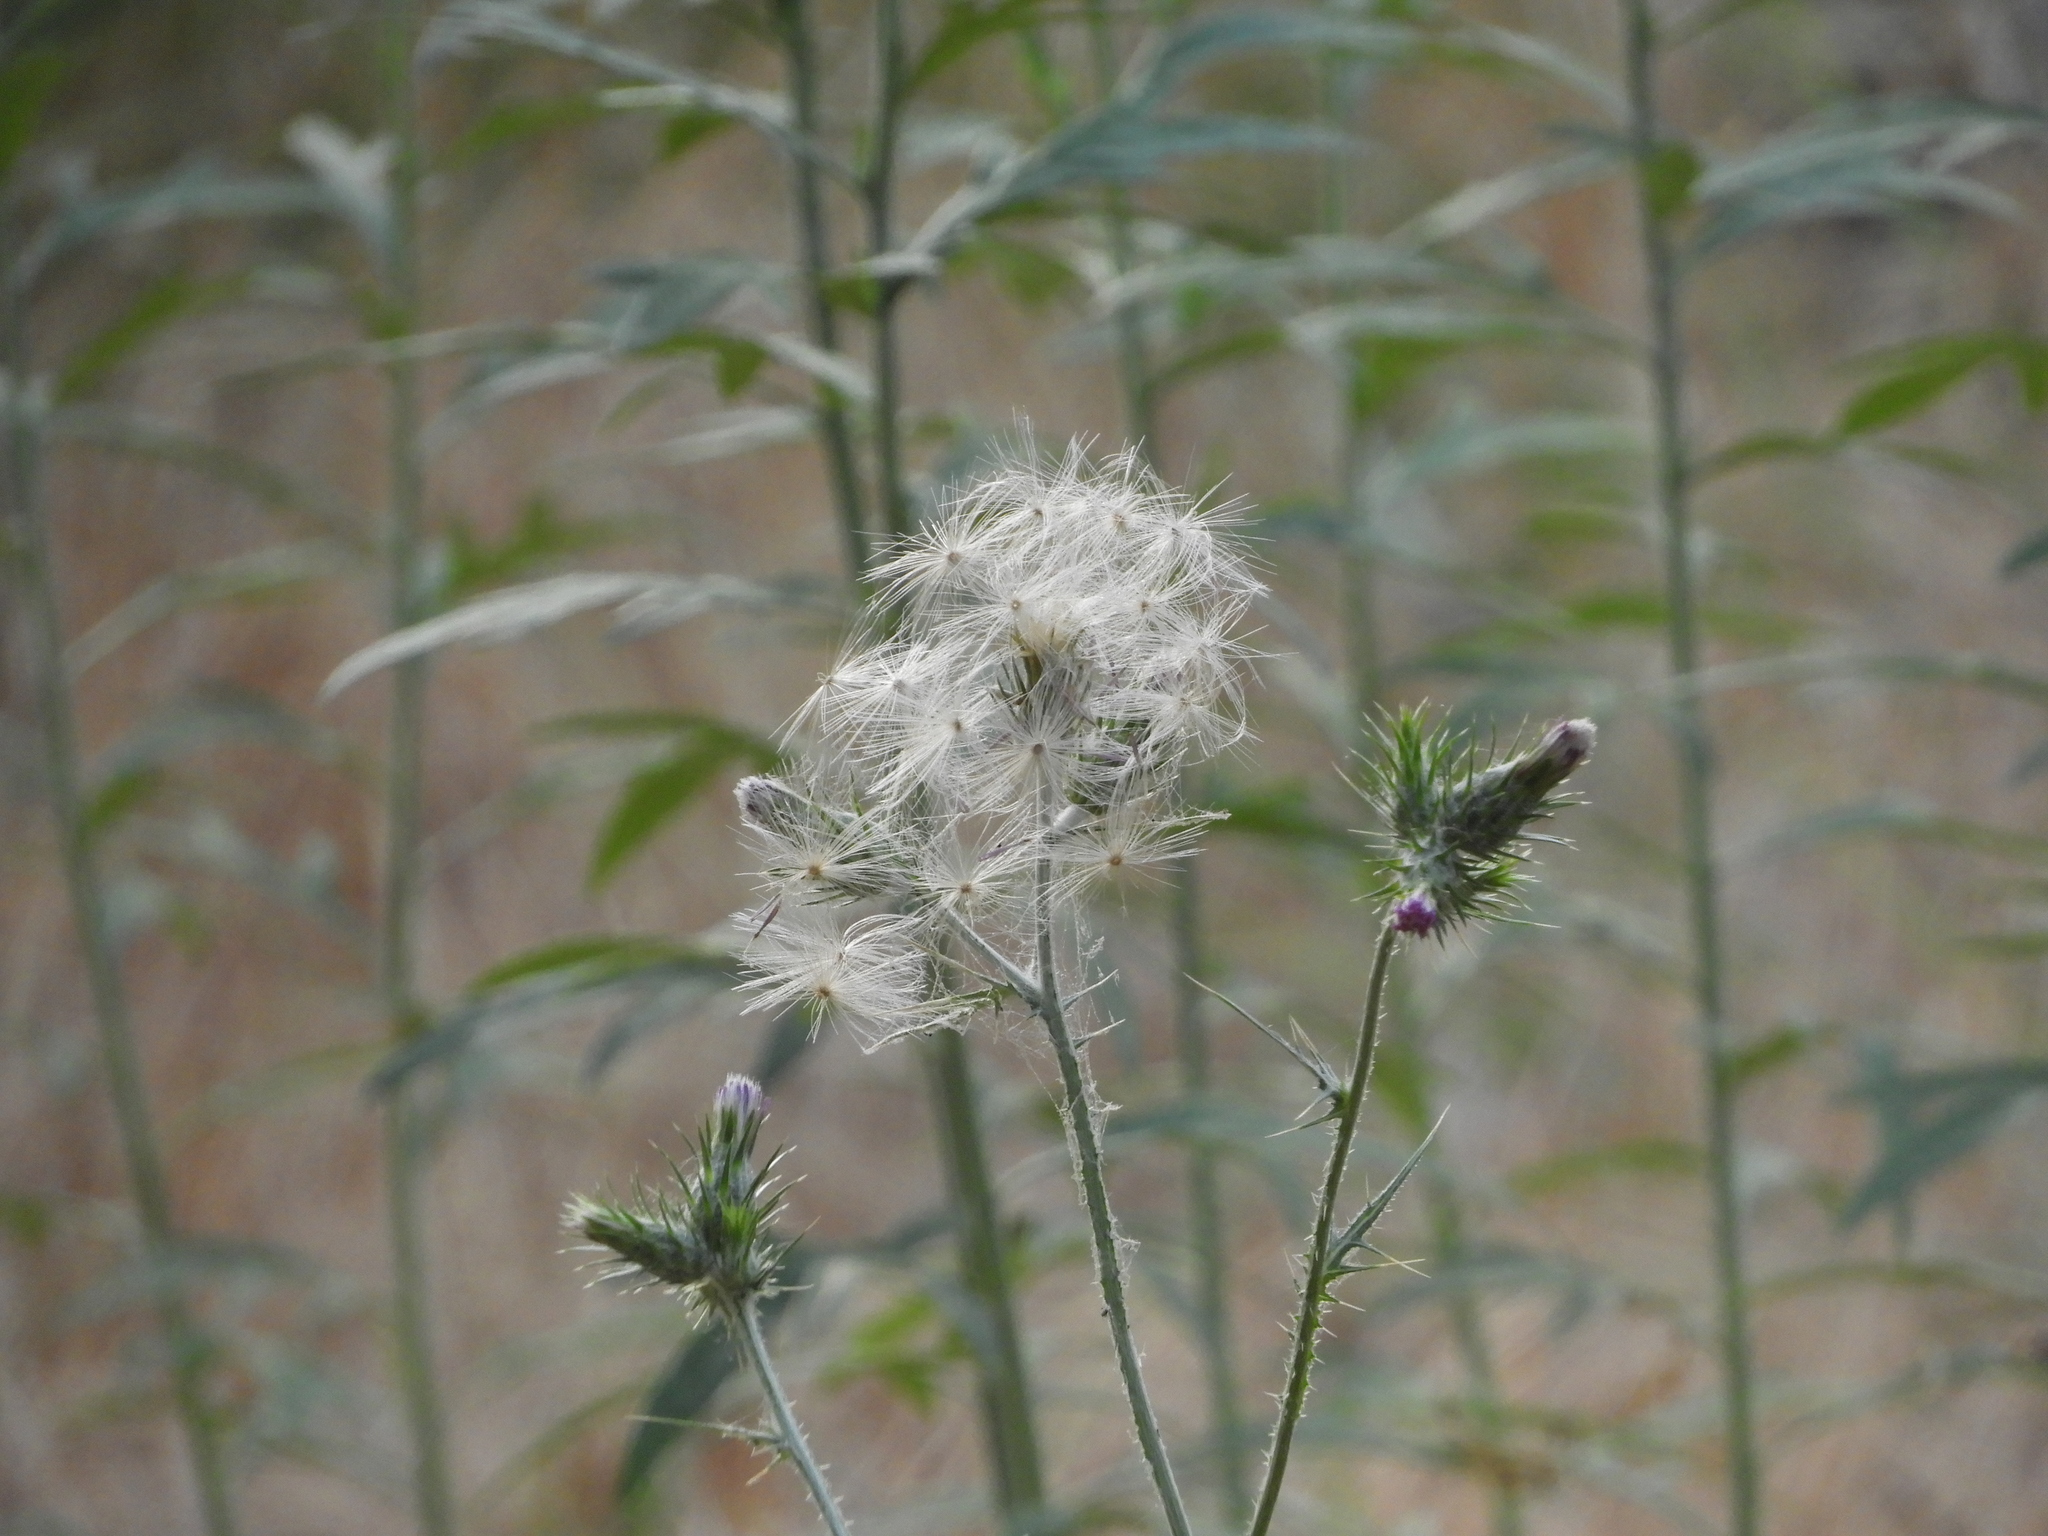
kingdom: Plantae
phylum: Tracheophyta
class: Magnoliopsida
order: Asterales
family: Asteraceae
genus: Carduus
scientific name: Carduus pycnocephalus
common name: Plymouth thistle
